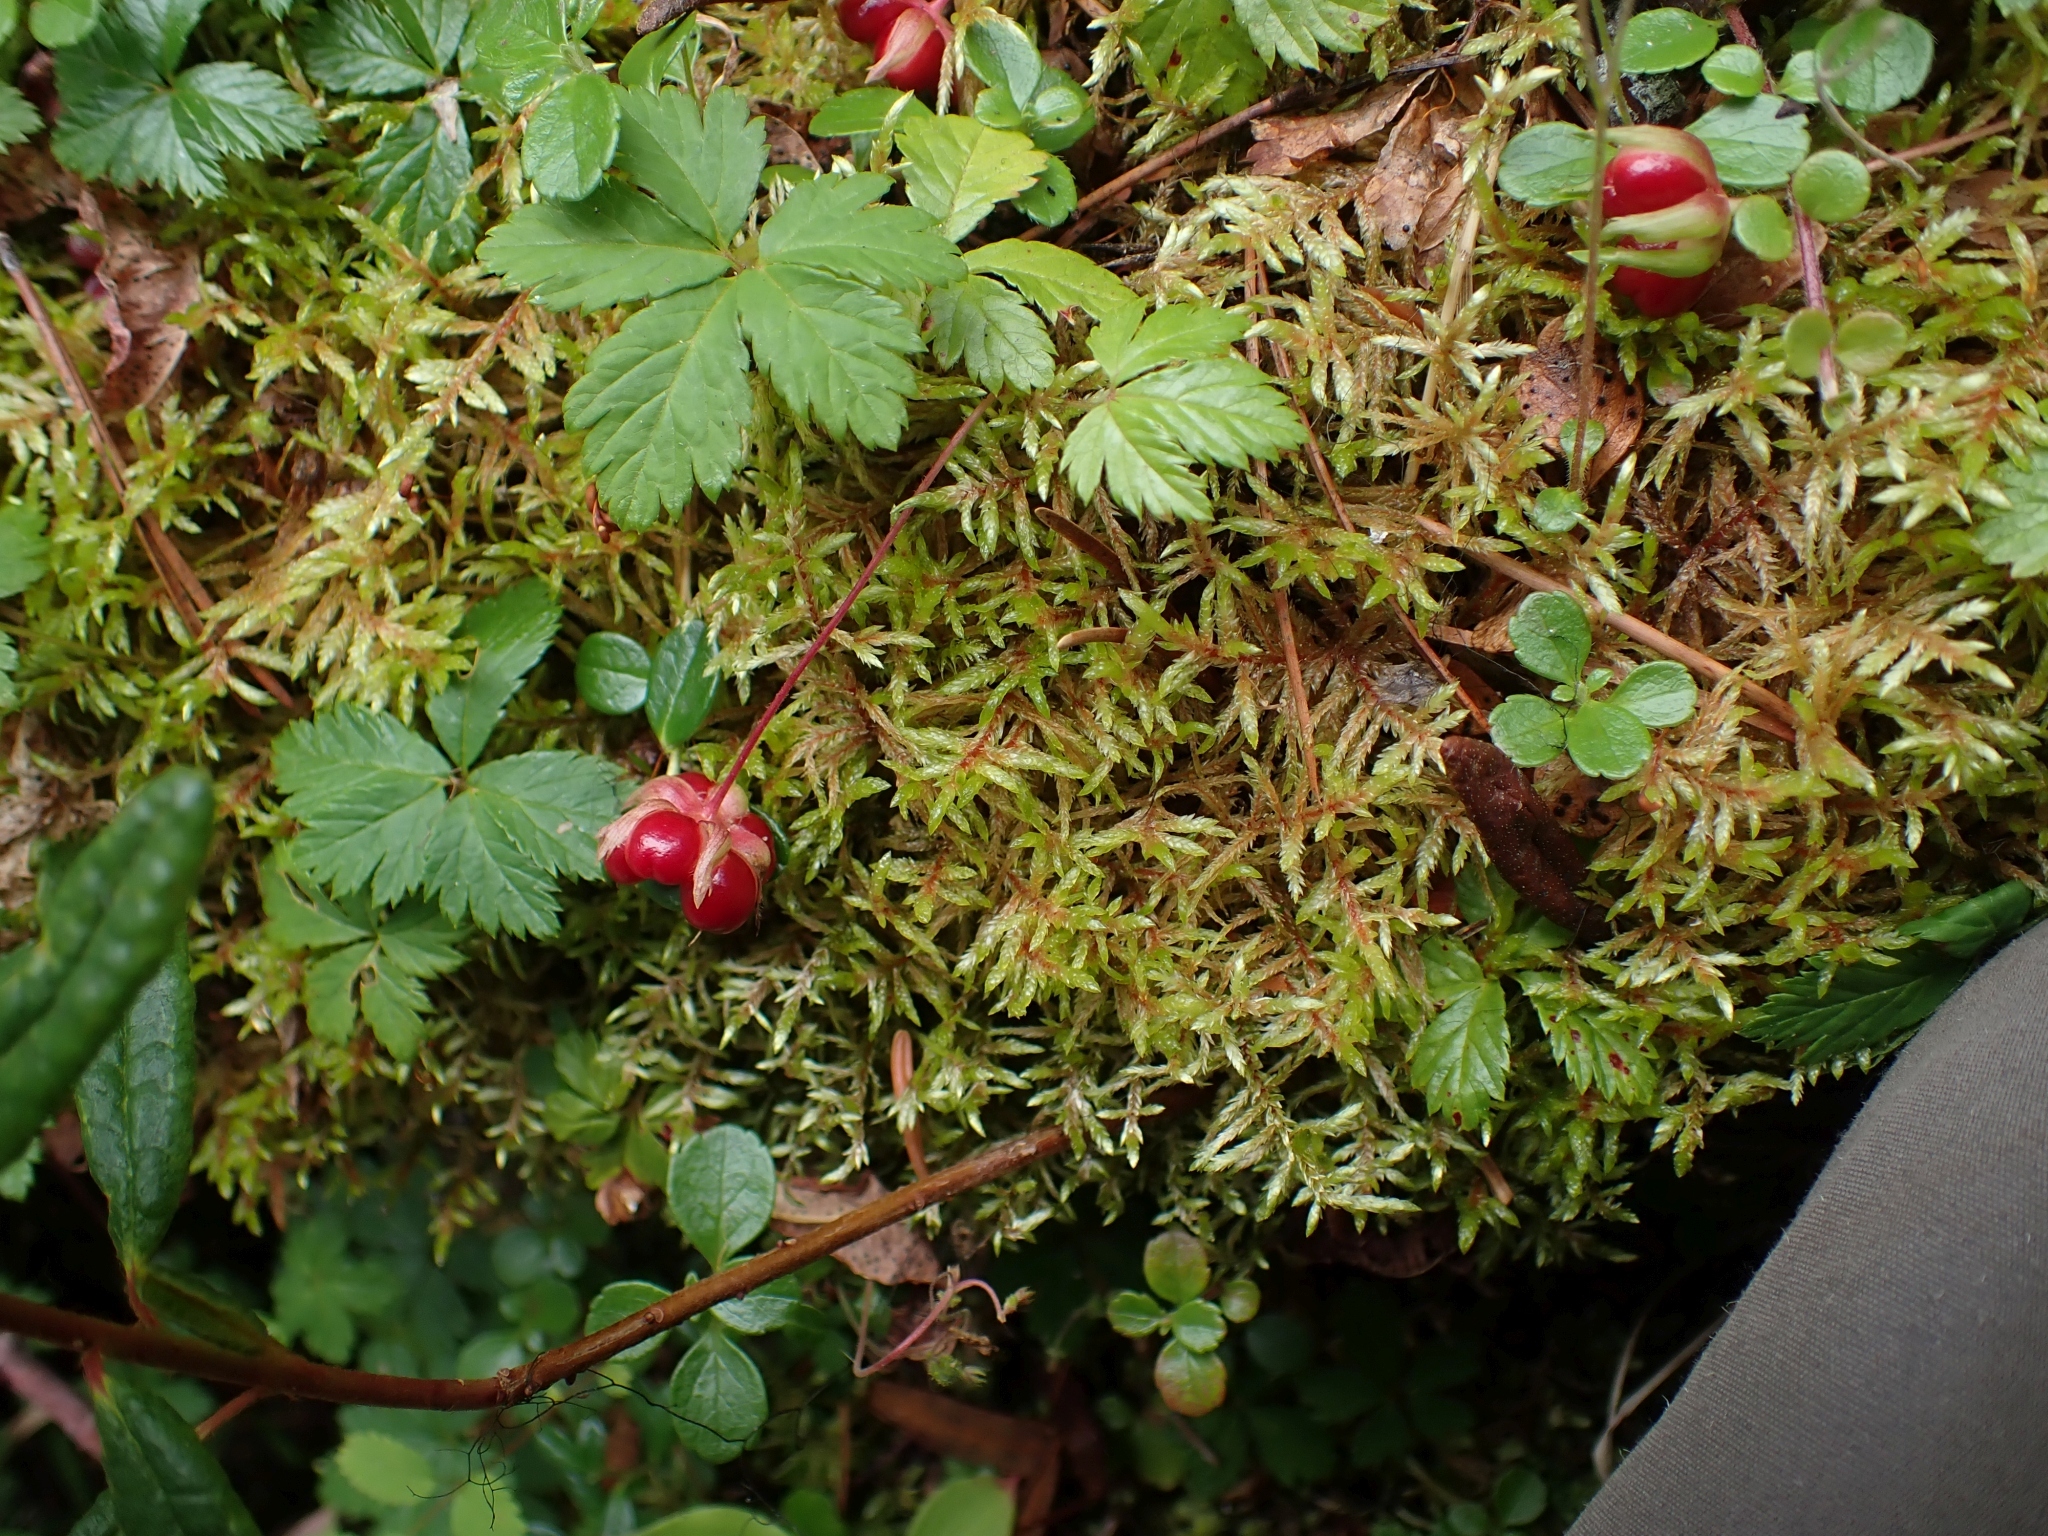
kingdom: Plantae
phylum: Bryophyta
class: Bryopsida
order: Hypnales
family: Hylocomiaceae
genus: Pleurozium
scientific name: Pleurozium schreberi
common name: Red-stemmed feather moss
